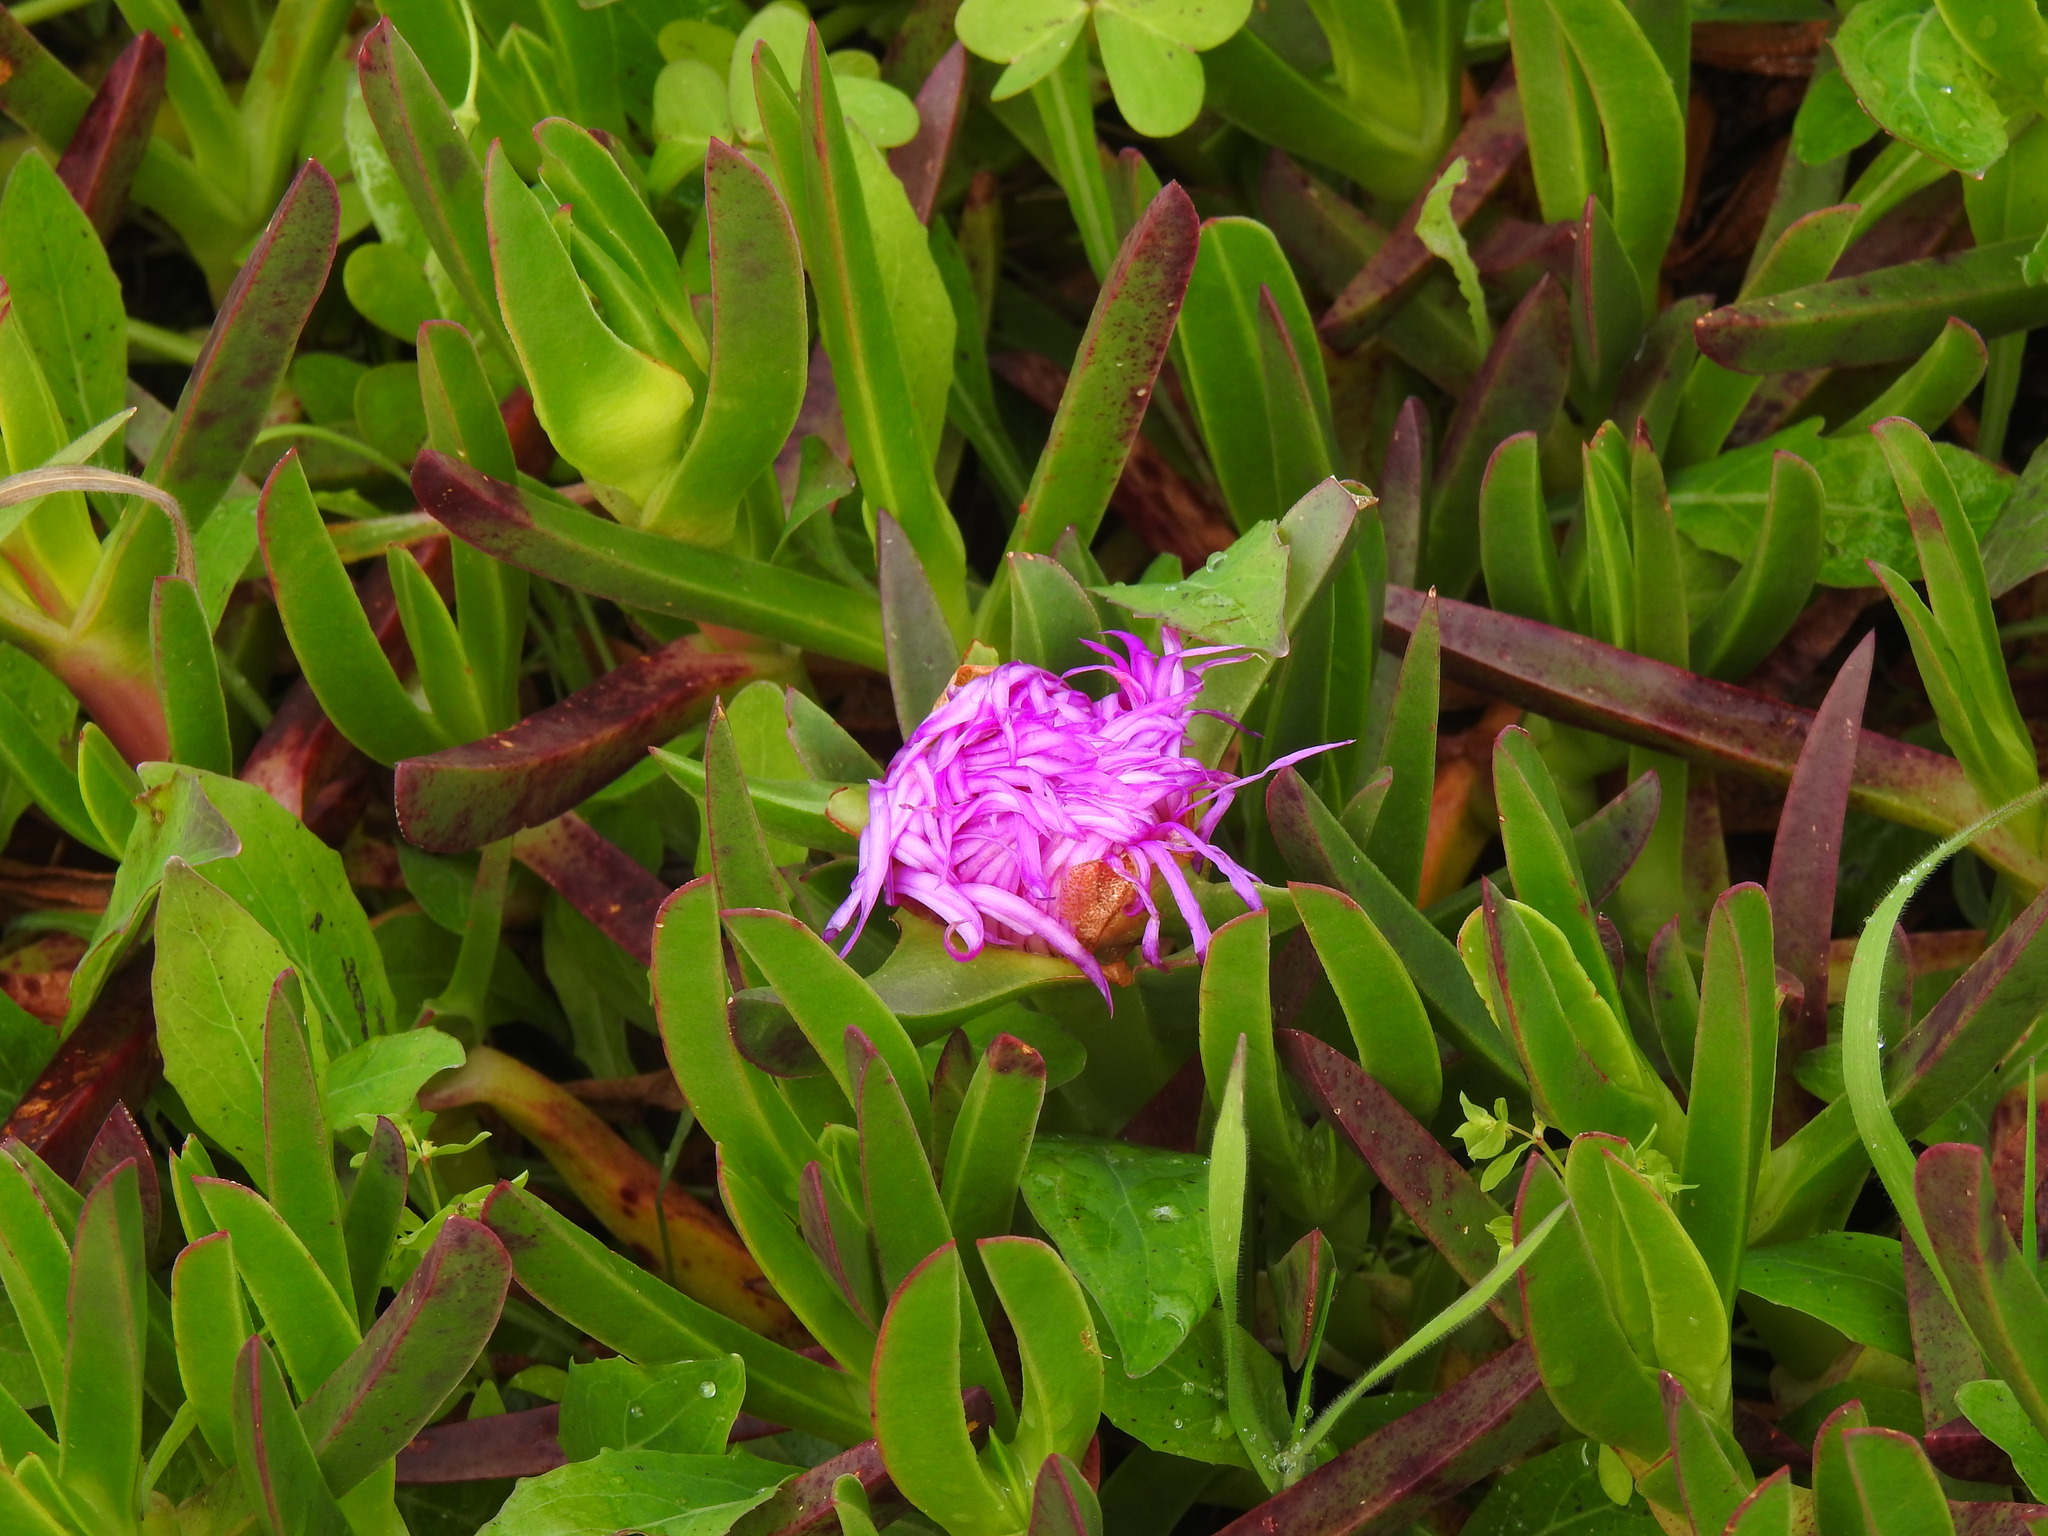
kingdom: Plantae
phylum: Tracheophyta
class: Magnoliopsida
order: Caryophyllales
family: Aizoaceae
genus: Carpobrotus
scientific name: Carpobrotus acinaciformis
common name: Sally-my-handsome
